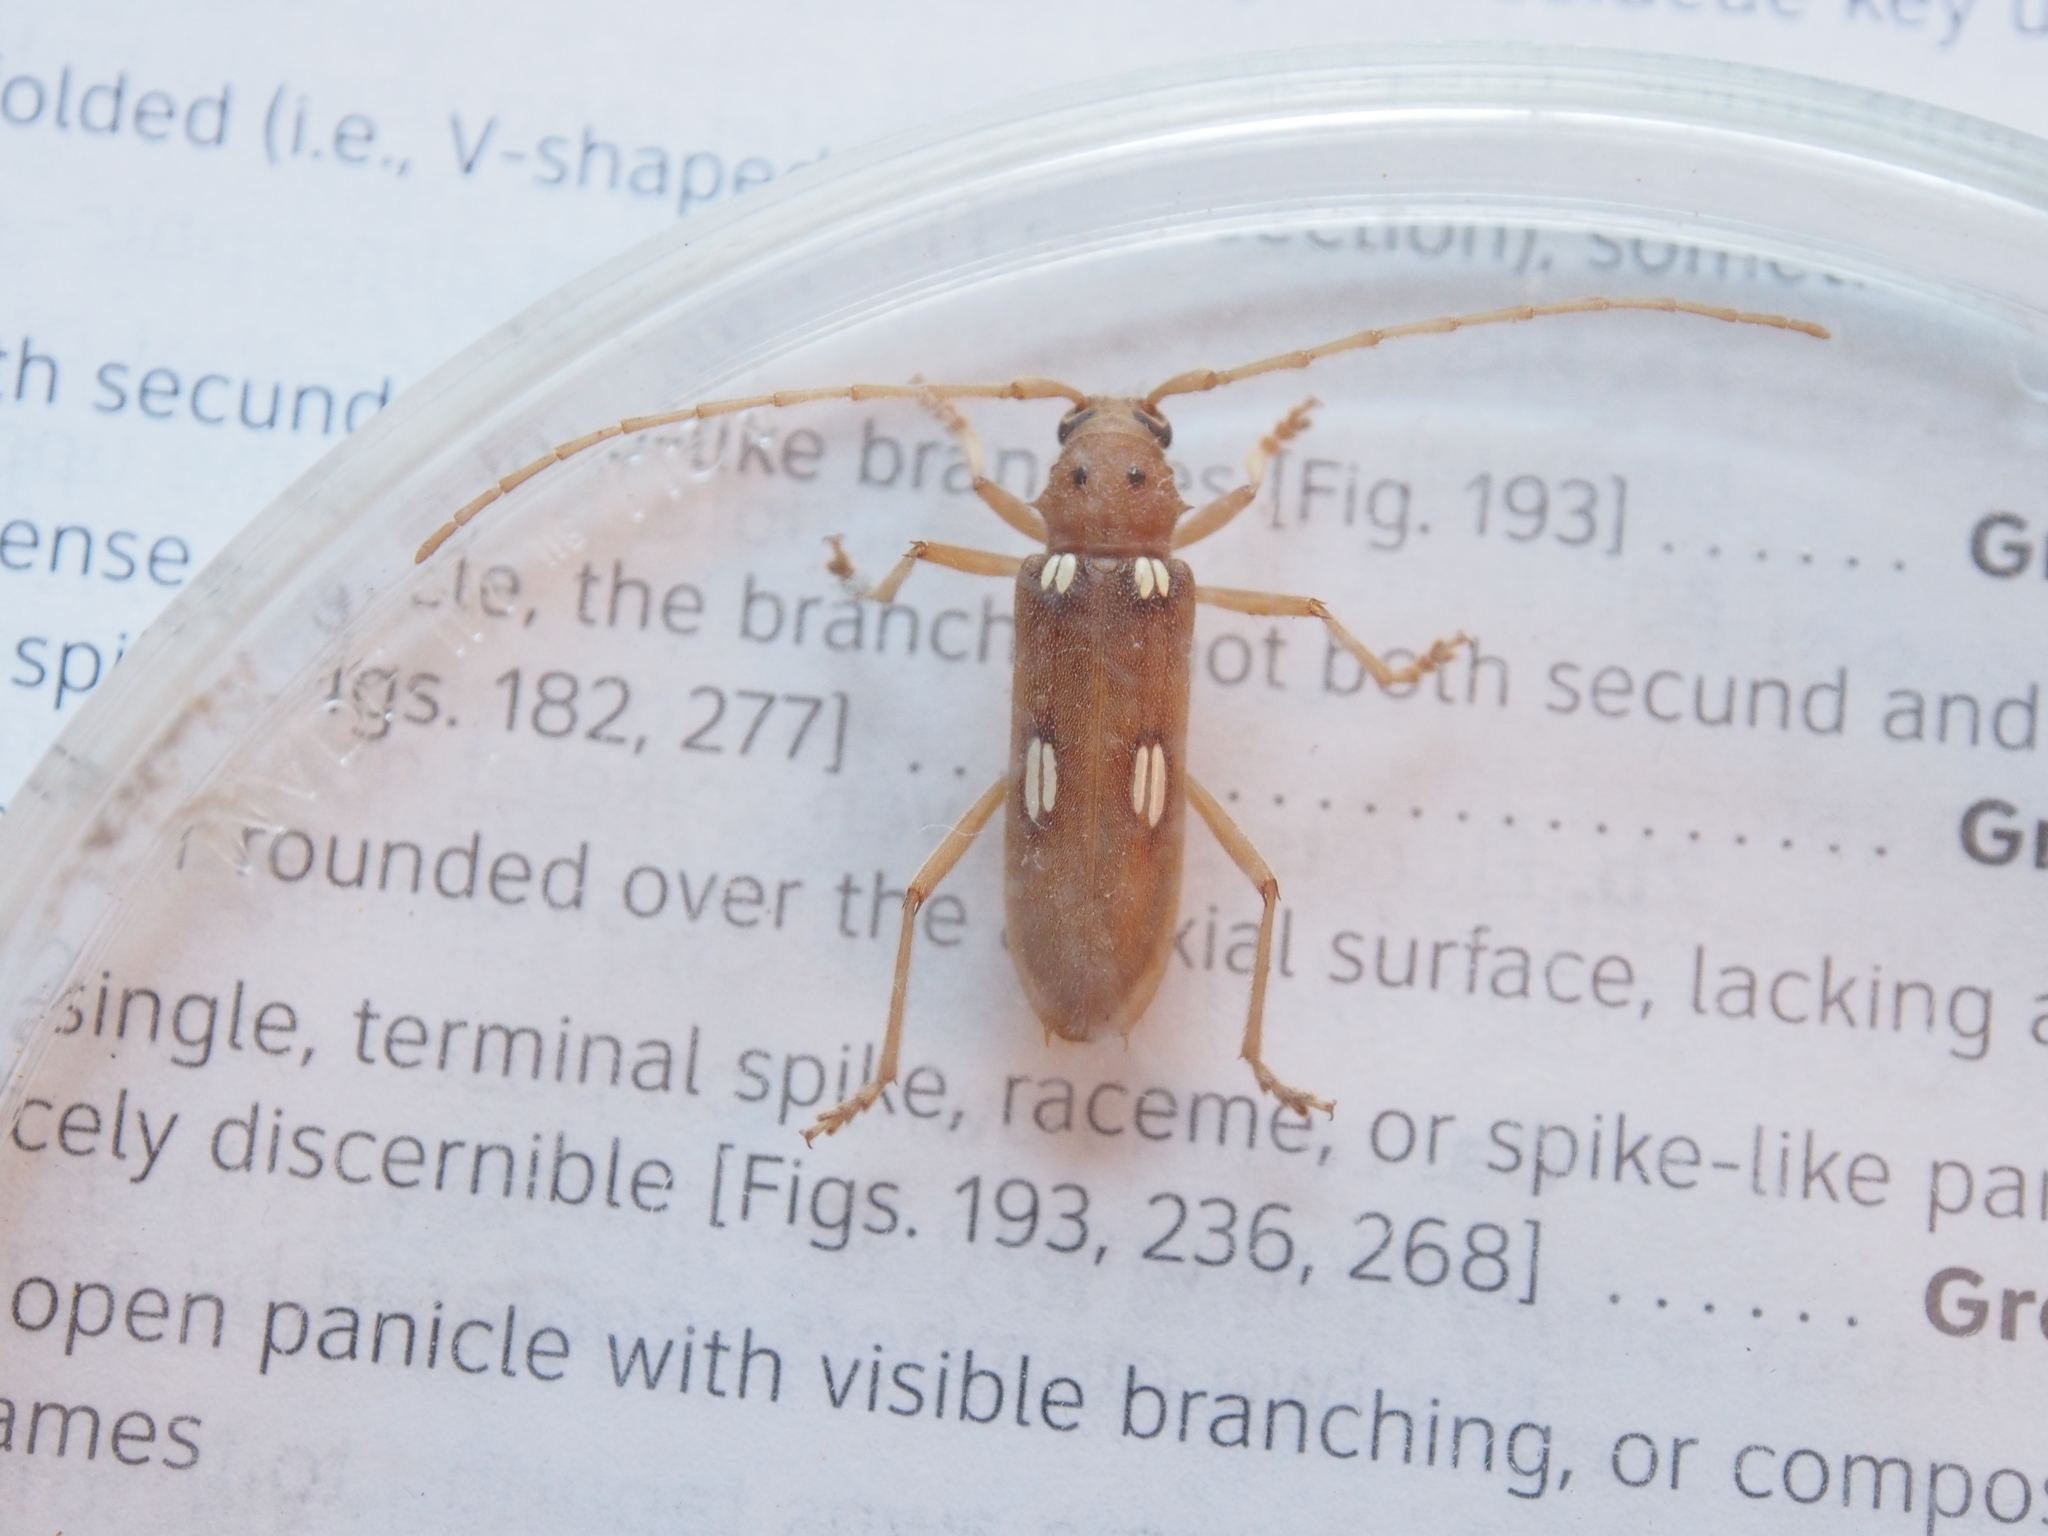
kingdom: Animalia
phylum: Arthropoda
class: Insecta
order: Coleoptera
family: Cerambycidae
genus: Eburia
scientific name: Eburia quadrigeminata
